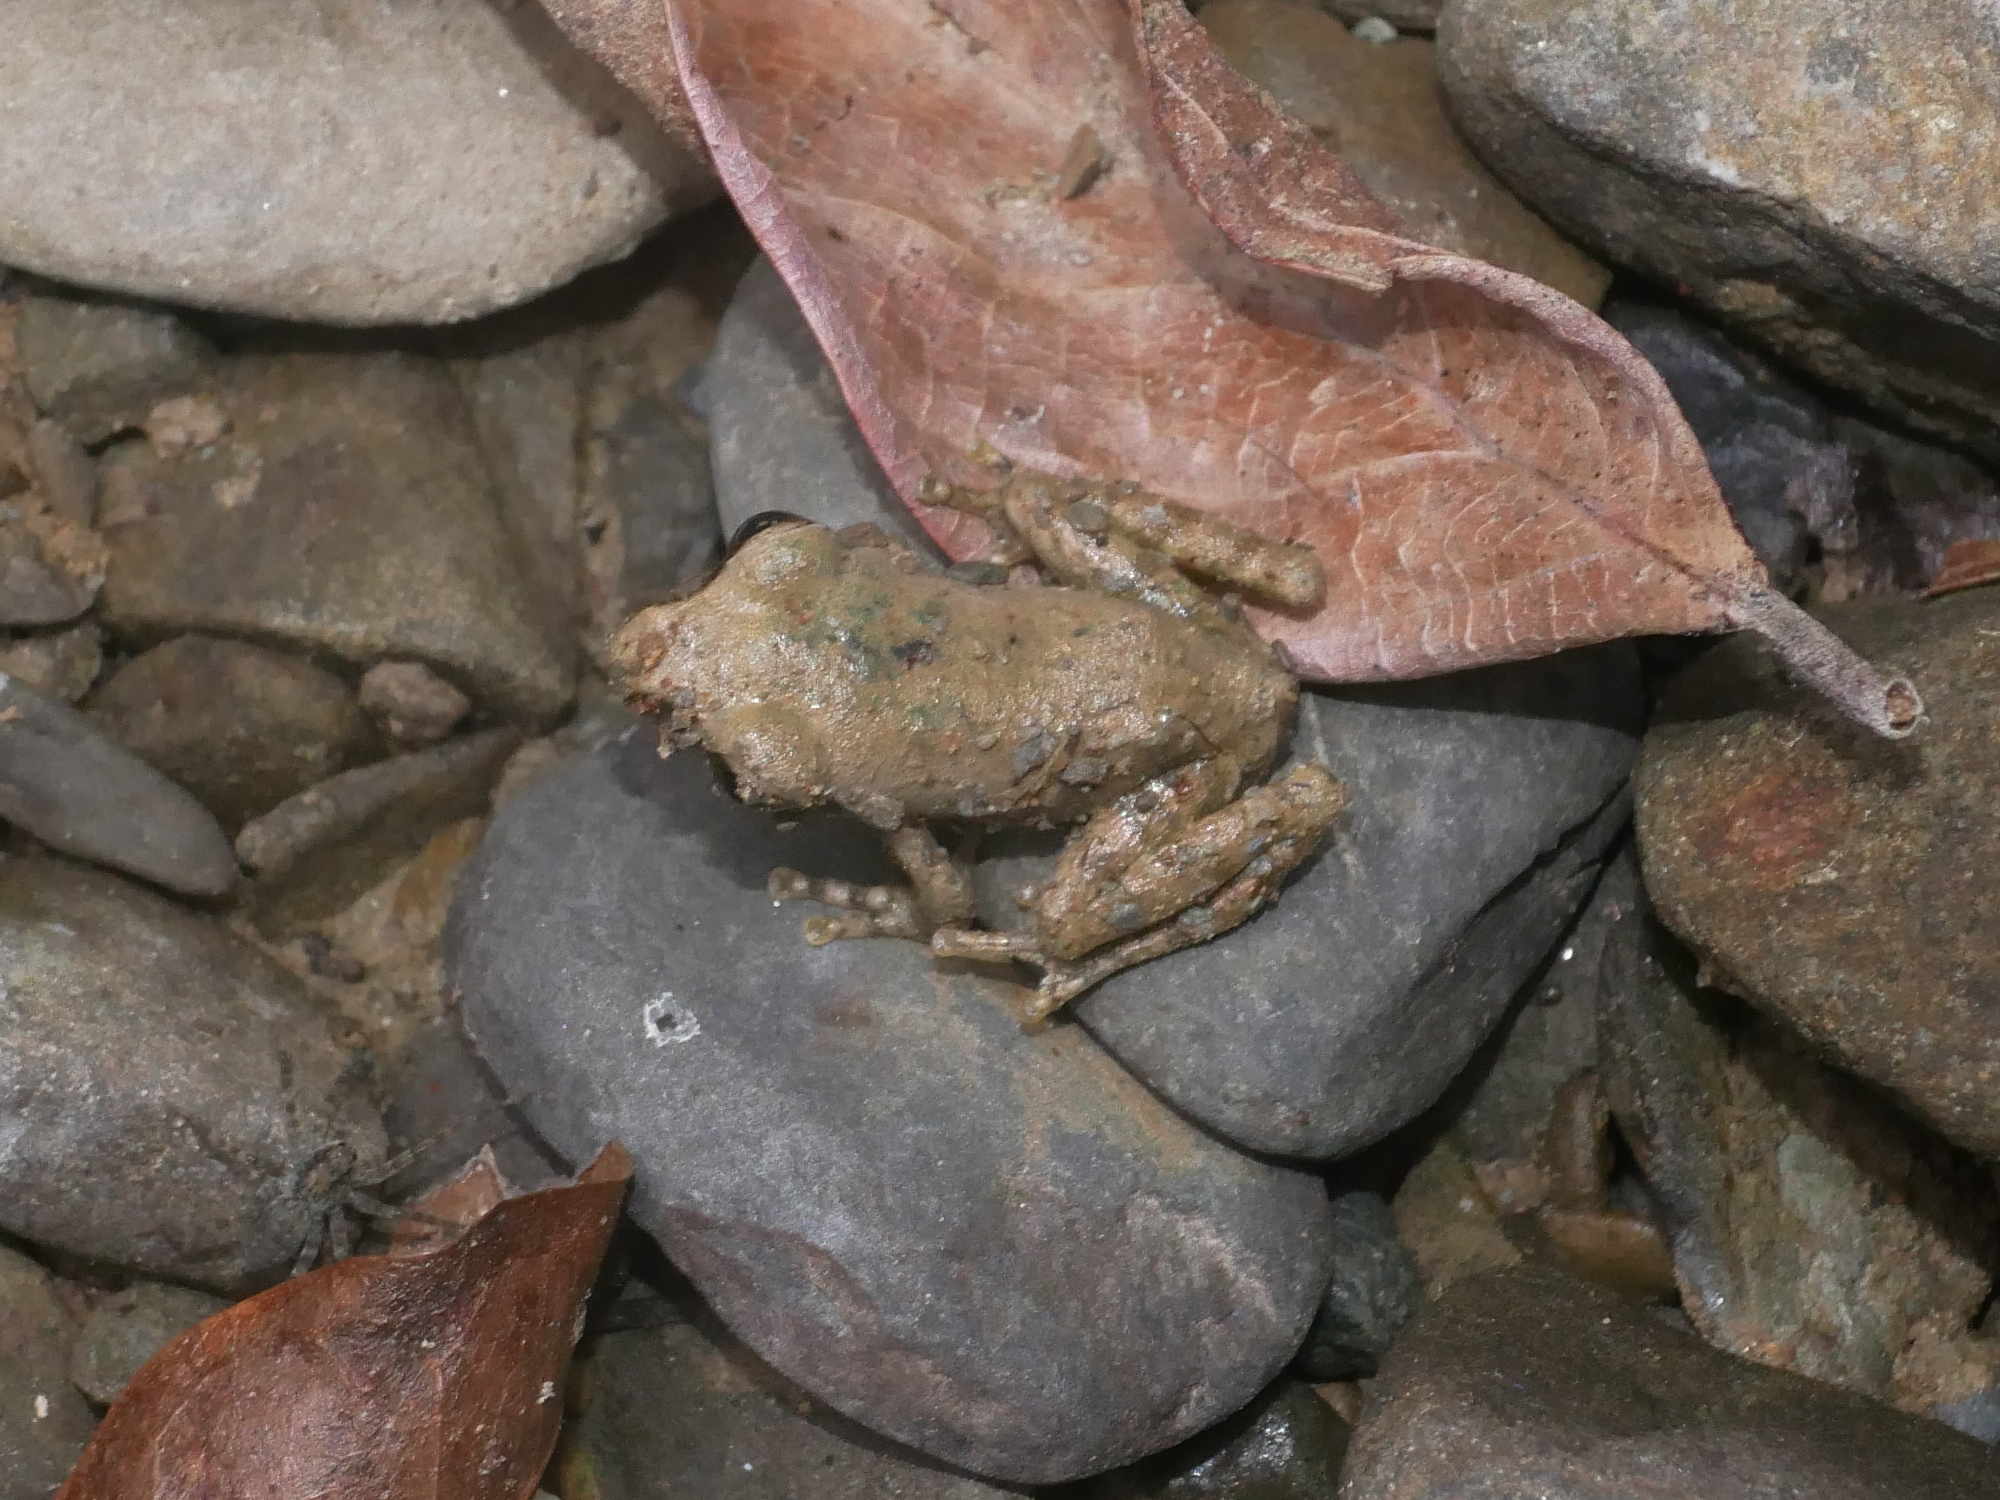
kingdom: Animalia
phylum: Chordata
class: Amphibia
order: Anura
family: Rhacophoridae
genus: Buergeria
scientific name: Buergeria otai
